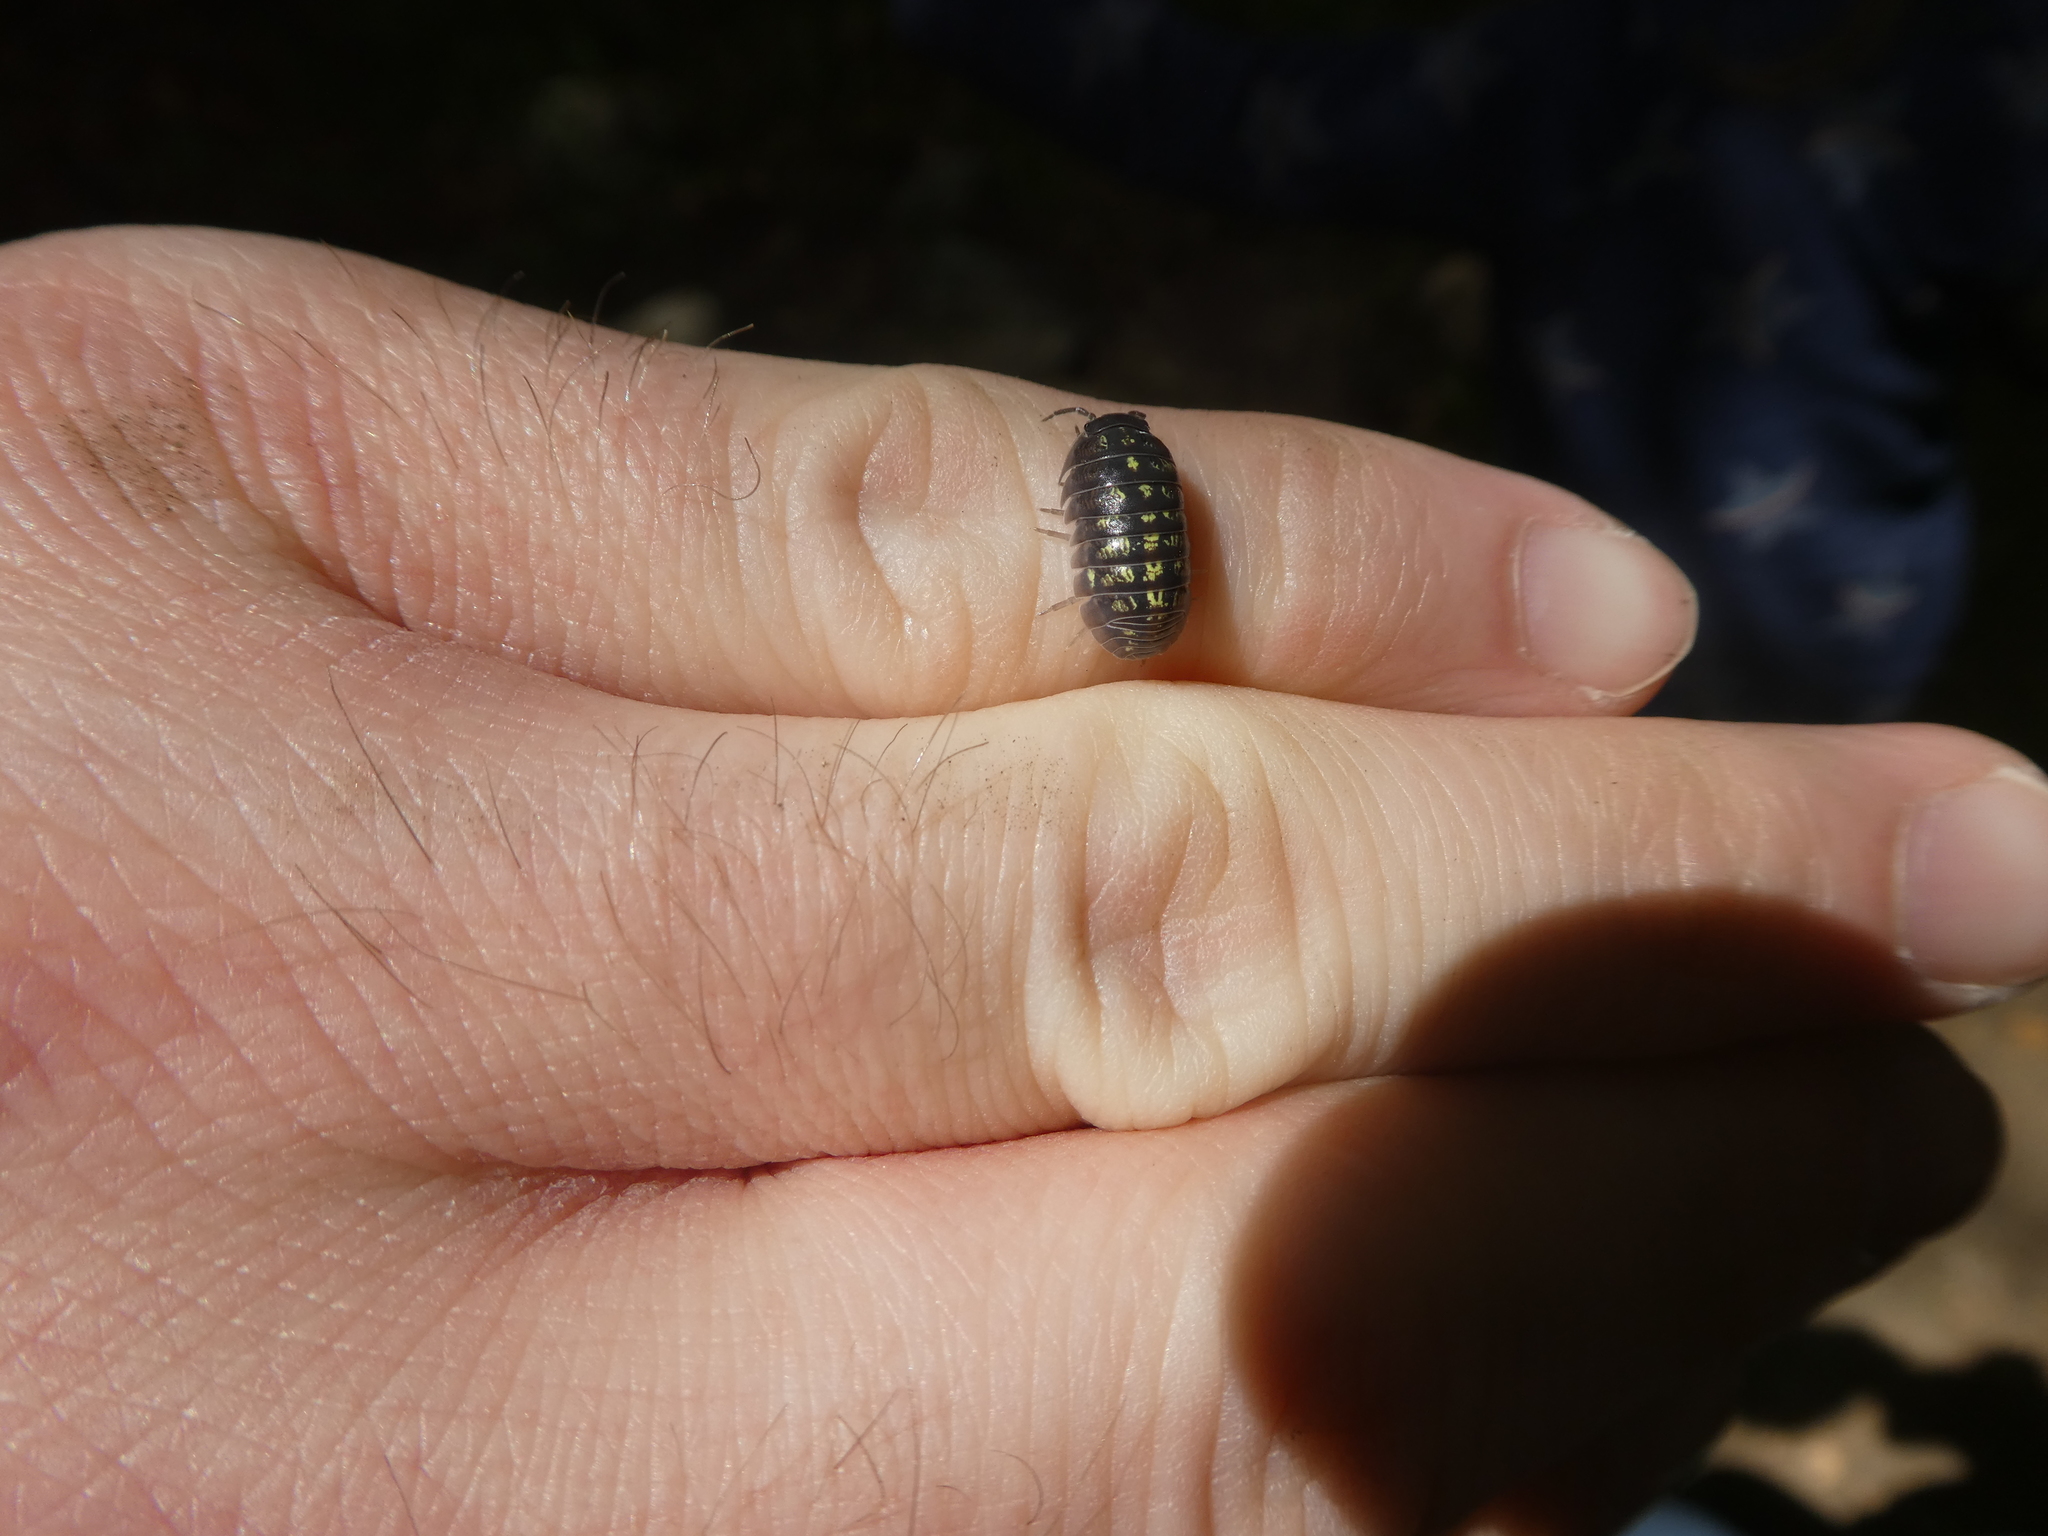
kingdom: Animalia
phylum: Arthropoda
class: Malacostraca
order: Isopoda
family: Armadillidiidae
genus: Armadillidium
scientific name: Armadillidium vulgare
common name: Common pill woodlouse
